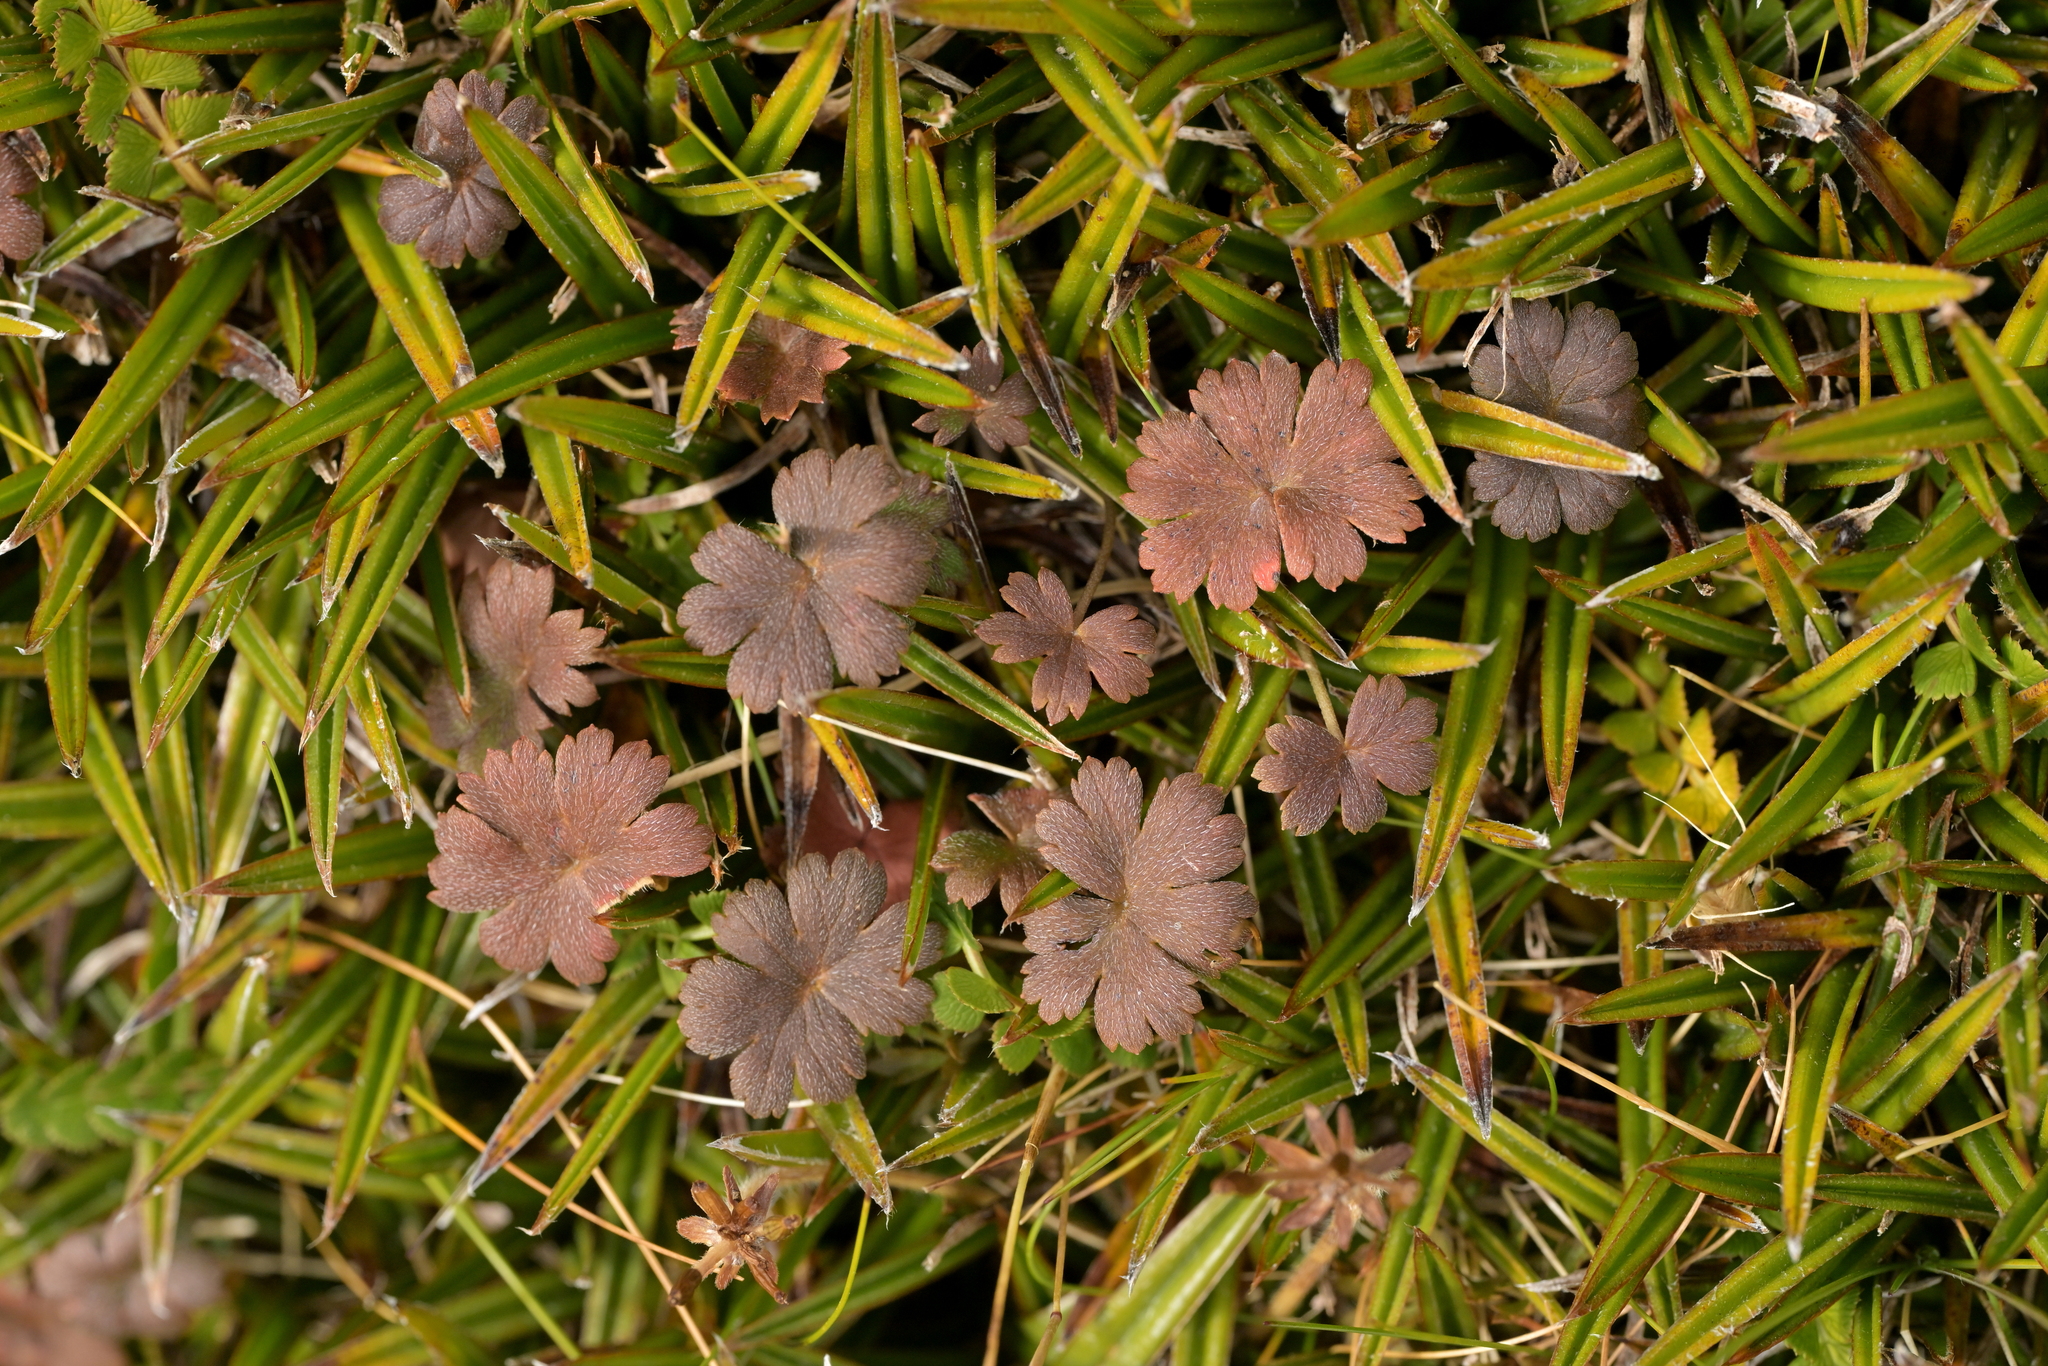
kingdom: Plantae
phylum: Tracheophyta
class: Magnoliopsida
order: Geraniales
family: Geraniaceae
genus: Geranium
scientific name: Geranium brevicaule
